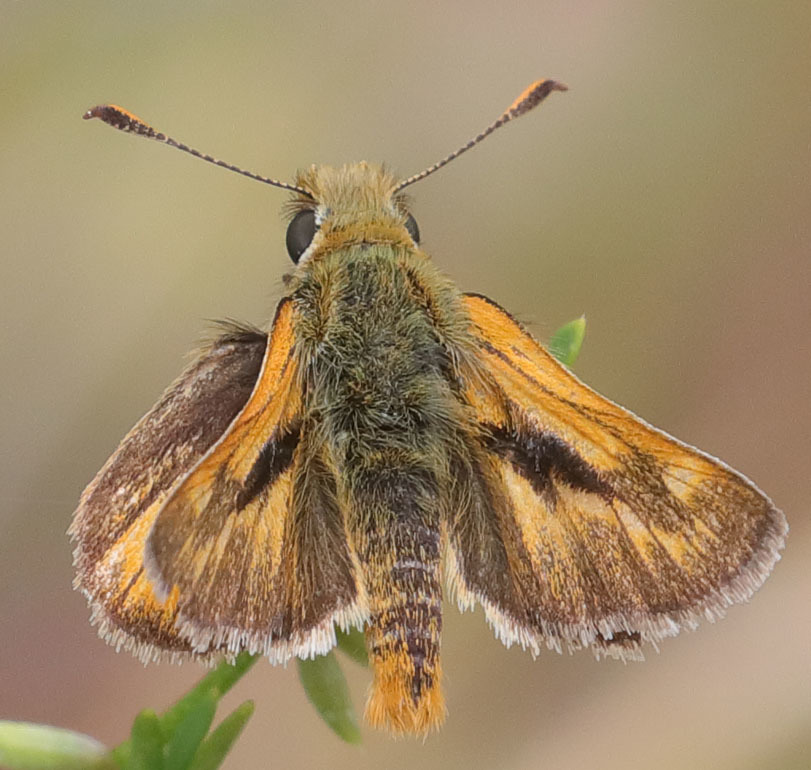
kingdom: Animalia
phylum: Arthropoda
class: Insecta
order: Lepidoptera
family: Hesperiidae
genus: Ochlodes
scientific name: Ochlodes agricola
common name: Rural skipper
